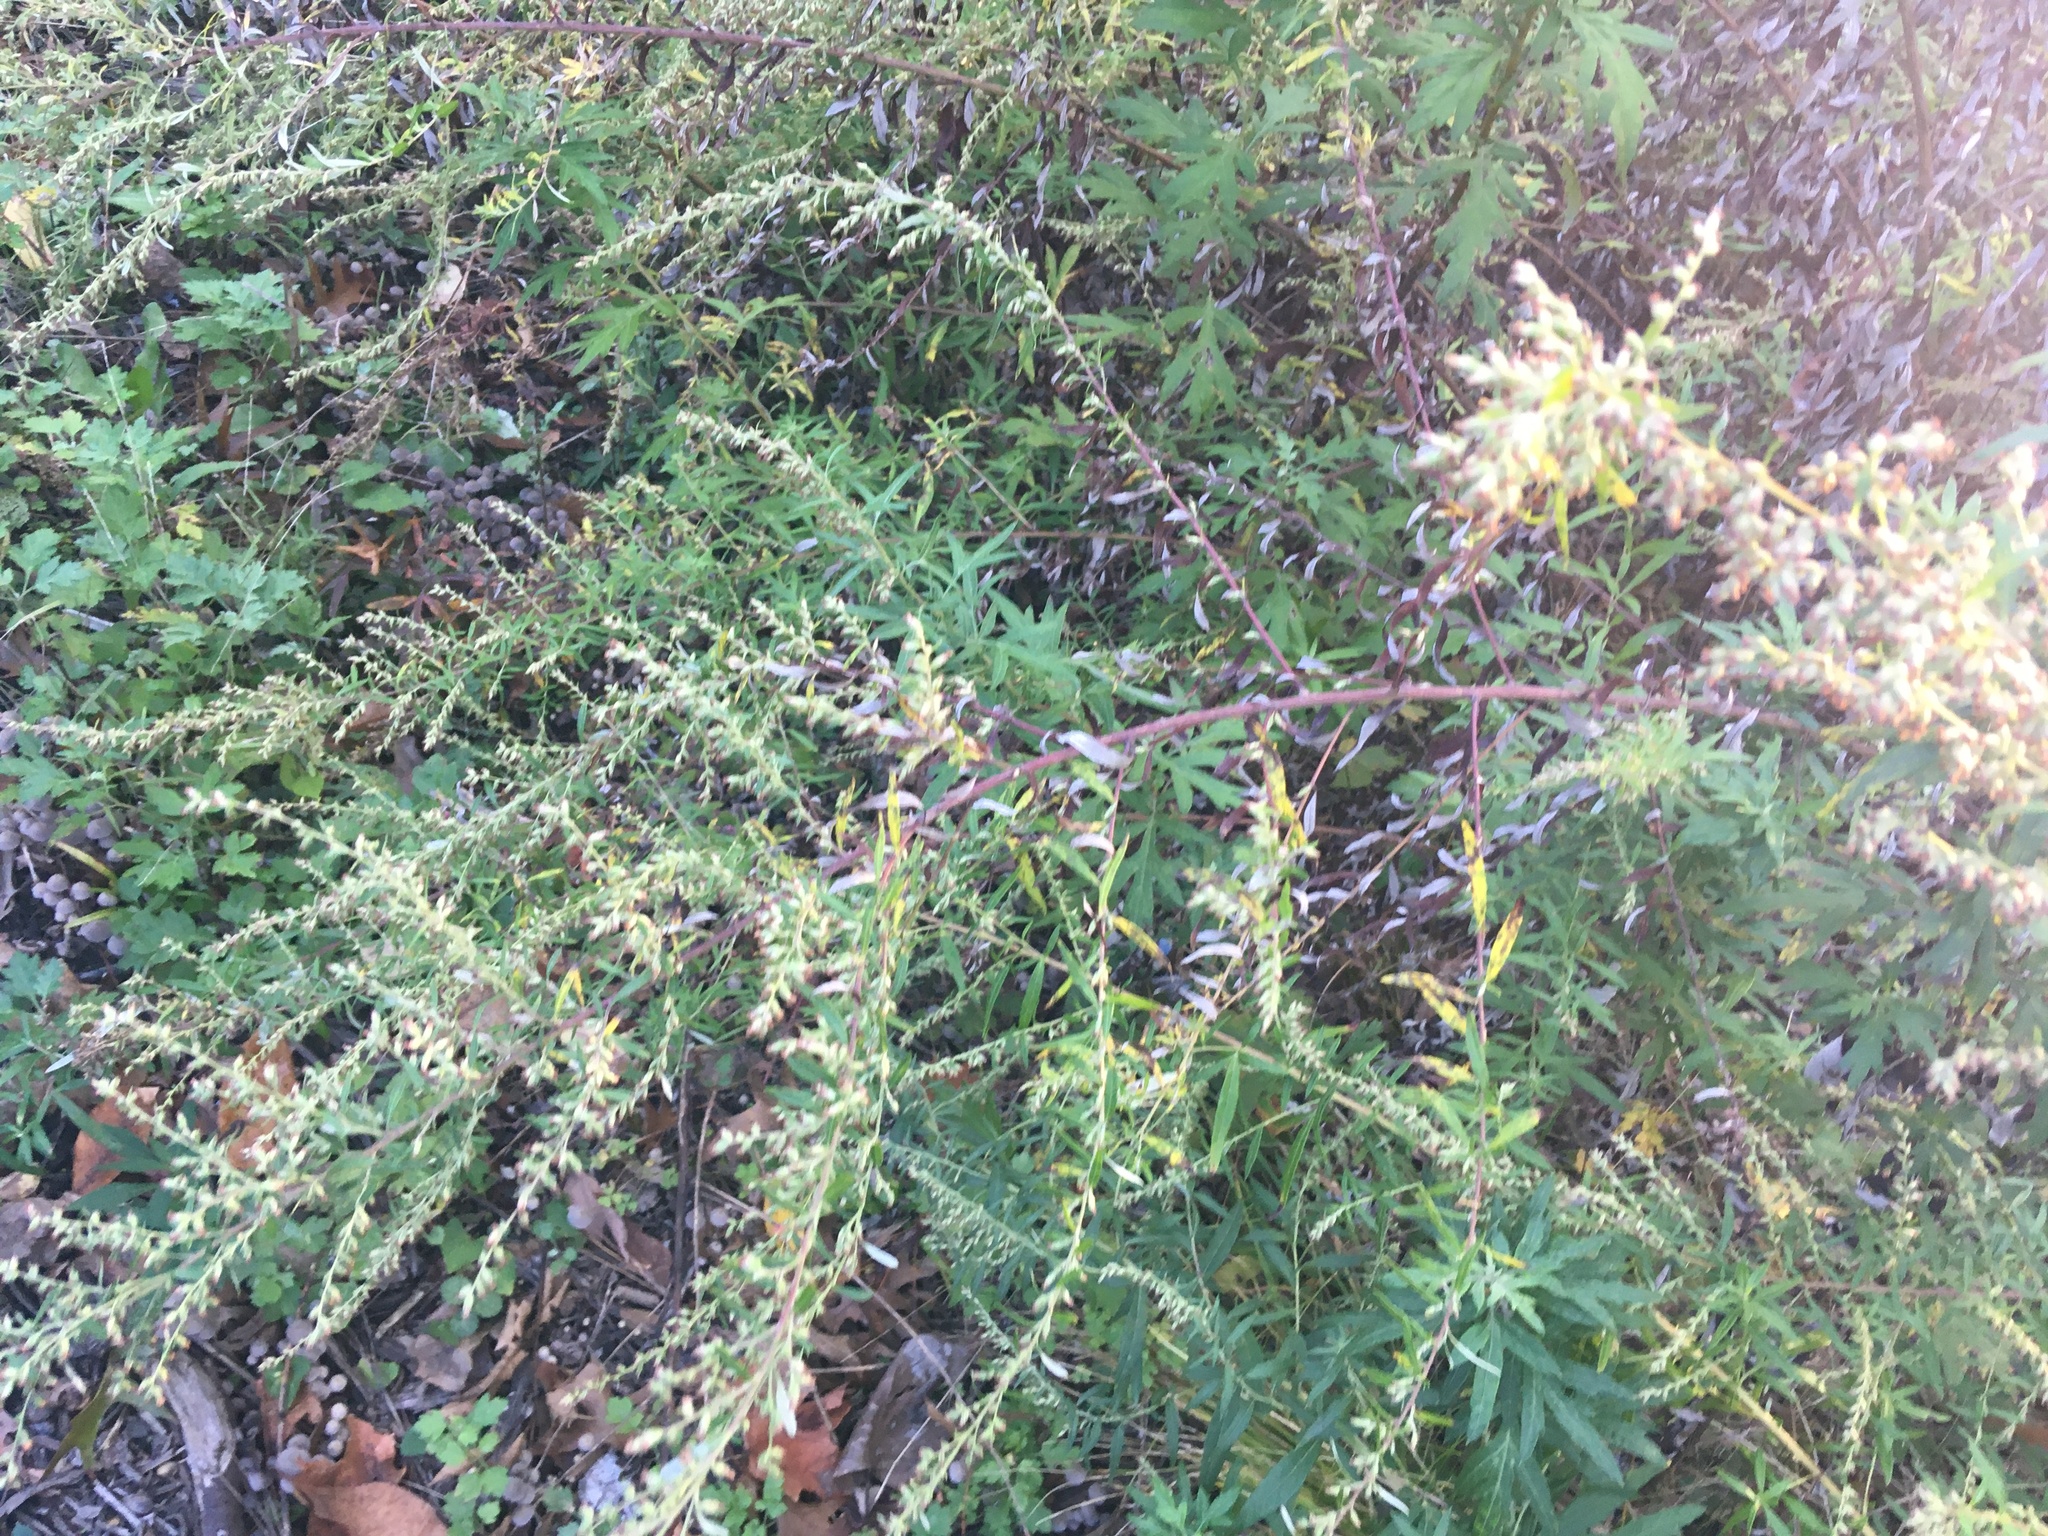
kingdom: Plantae
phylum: Tracheophyta
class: Magnoliopsida
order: Asterales
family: Asteraceae
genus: Artemisia
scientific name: Artemisia vulgaris
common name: Mugwort
